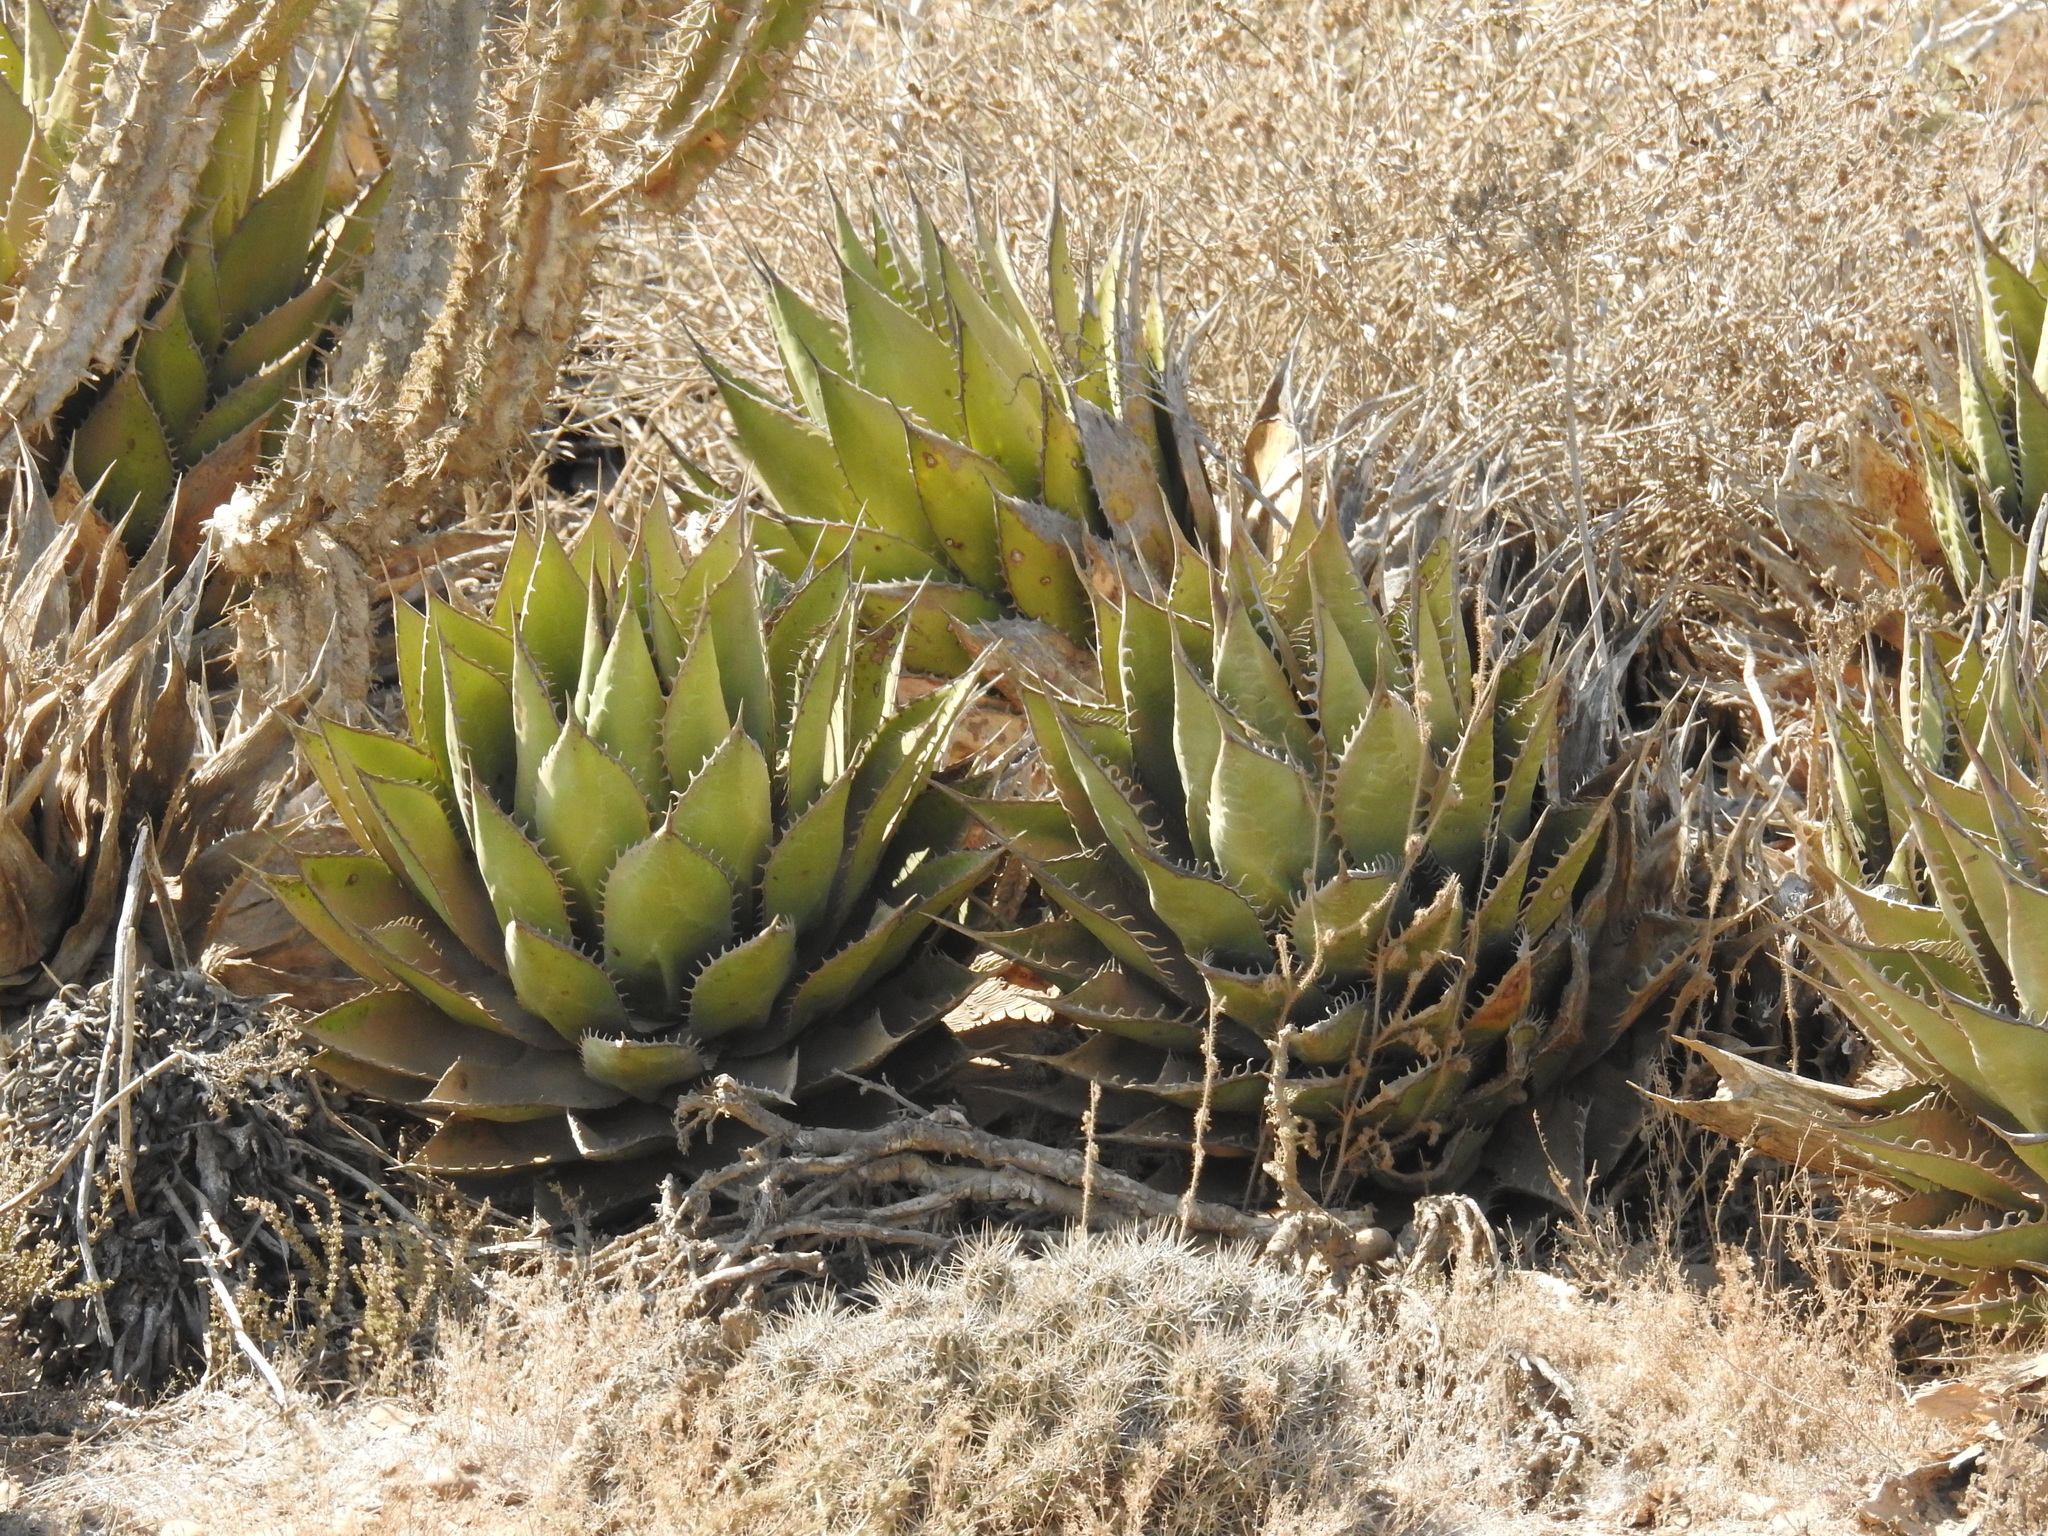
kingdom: Plantae
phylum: Tracheophyta
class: Liliopsida
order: Asparagales
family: Asparagaceae
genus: Agave
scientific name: Agave shawii
